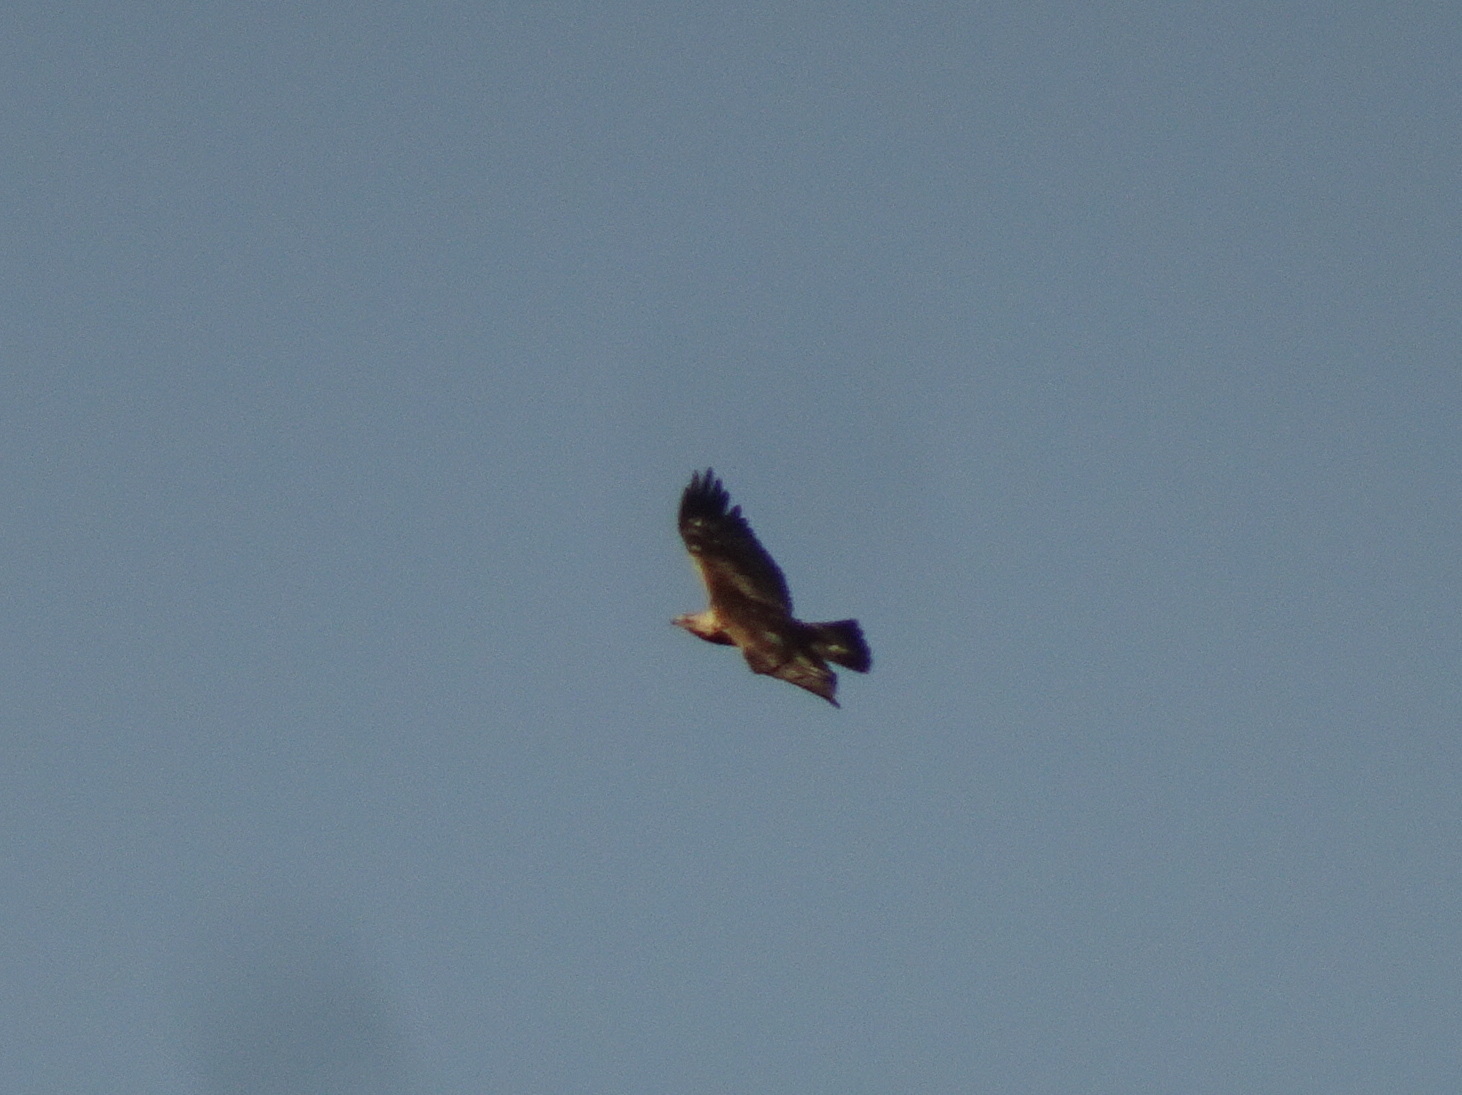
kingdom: Animalia
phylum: Chordata
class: Aves
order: Accipitriformes
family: Accipitridae
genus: Aquila
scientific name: Aquila chrysaetos
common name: Golden eagle
